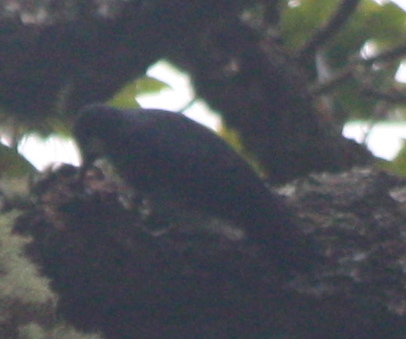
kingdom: Animalia
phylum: Chordata
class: Aves
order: Piciformes
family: Picidae
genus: Melanerpes
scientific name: Melanerpes formicivorus
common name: Acorn woodpecker
